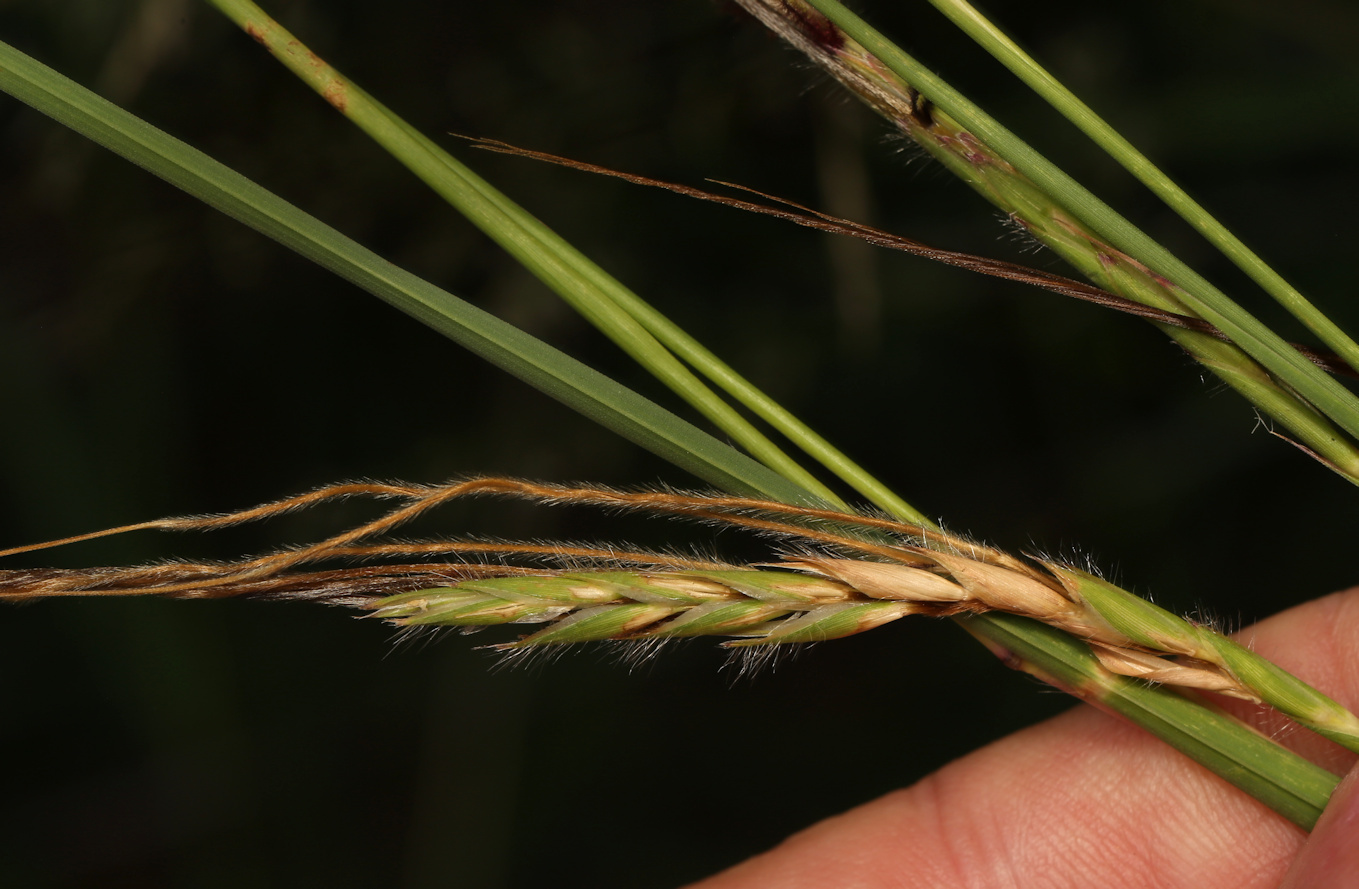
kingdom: Plantae
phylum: Tracheophyta
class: Liliopsida
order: Poales
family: Poaceae
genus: Heteropogon
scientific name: Heteropogon contortus
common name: Tanglehead
